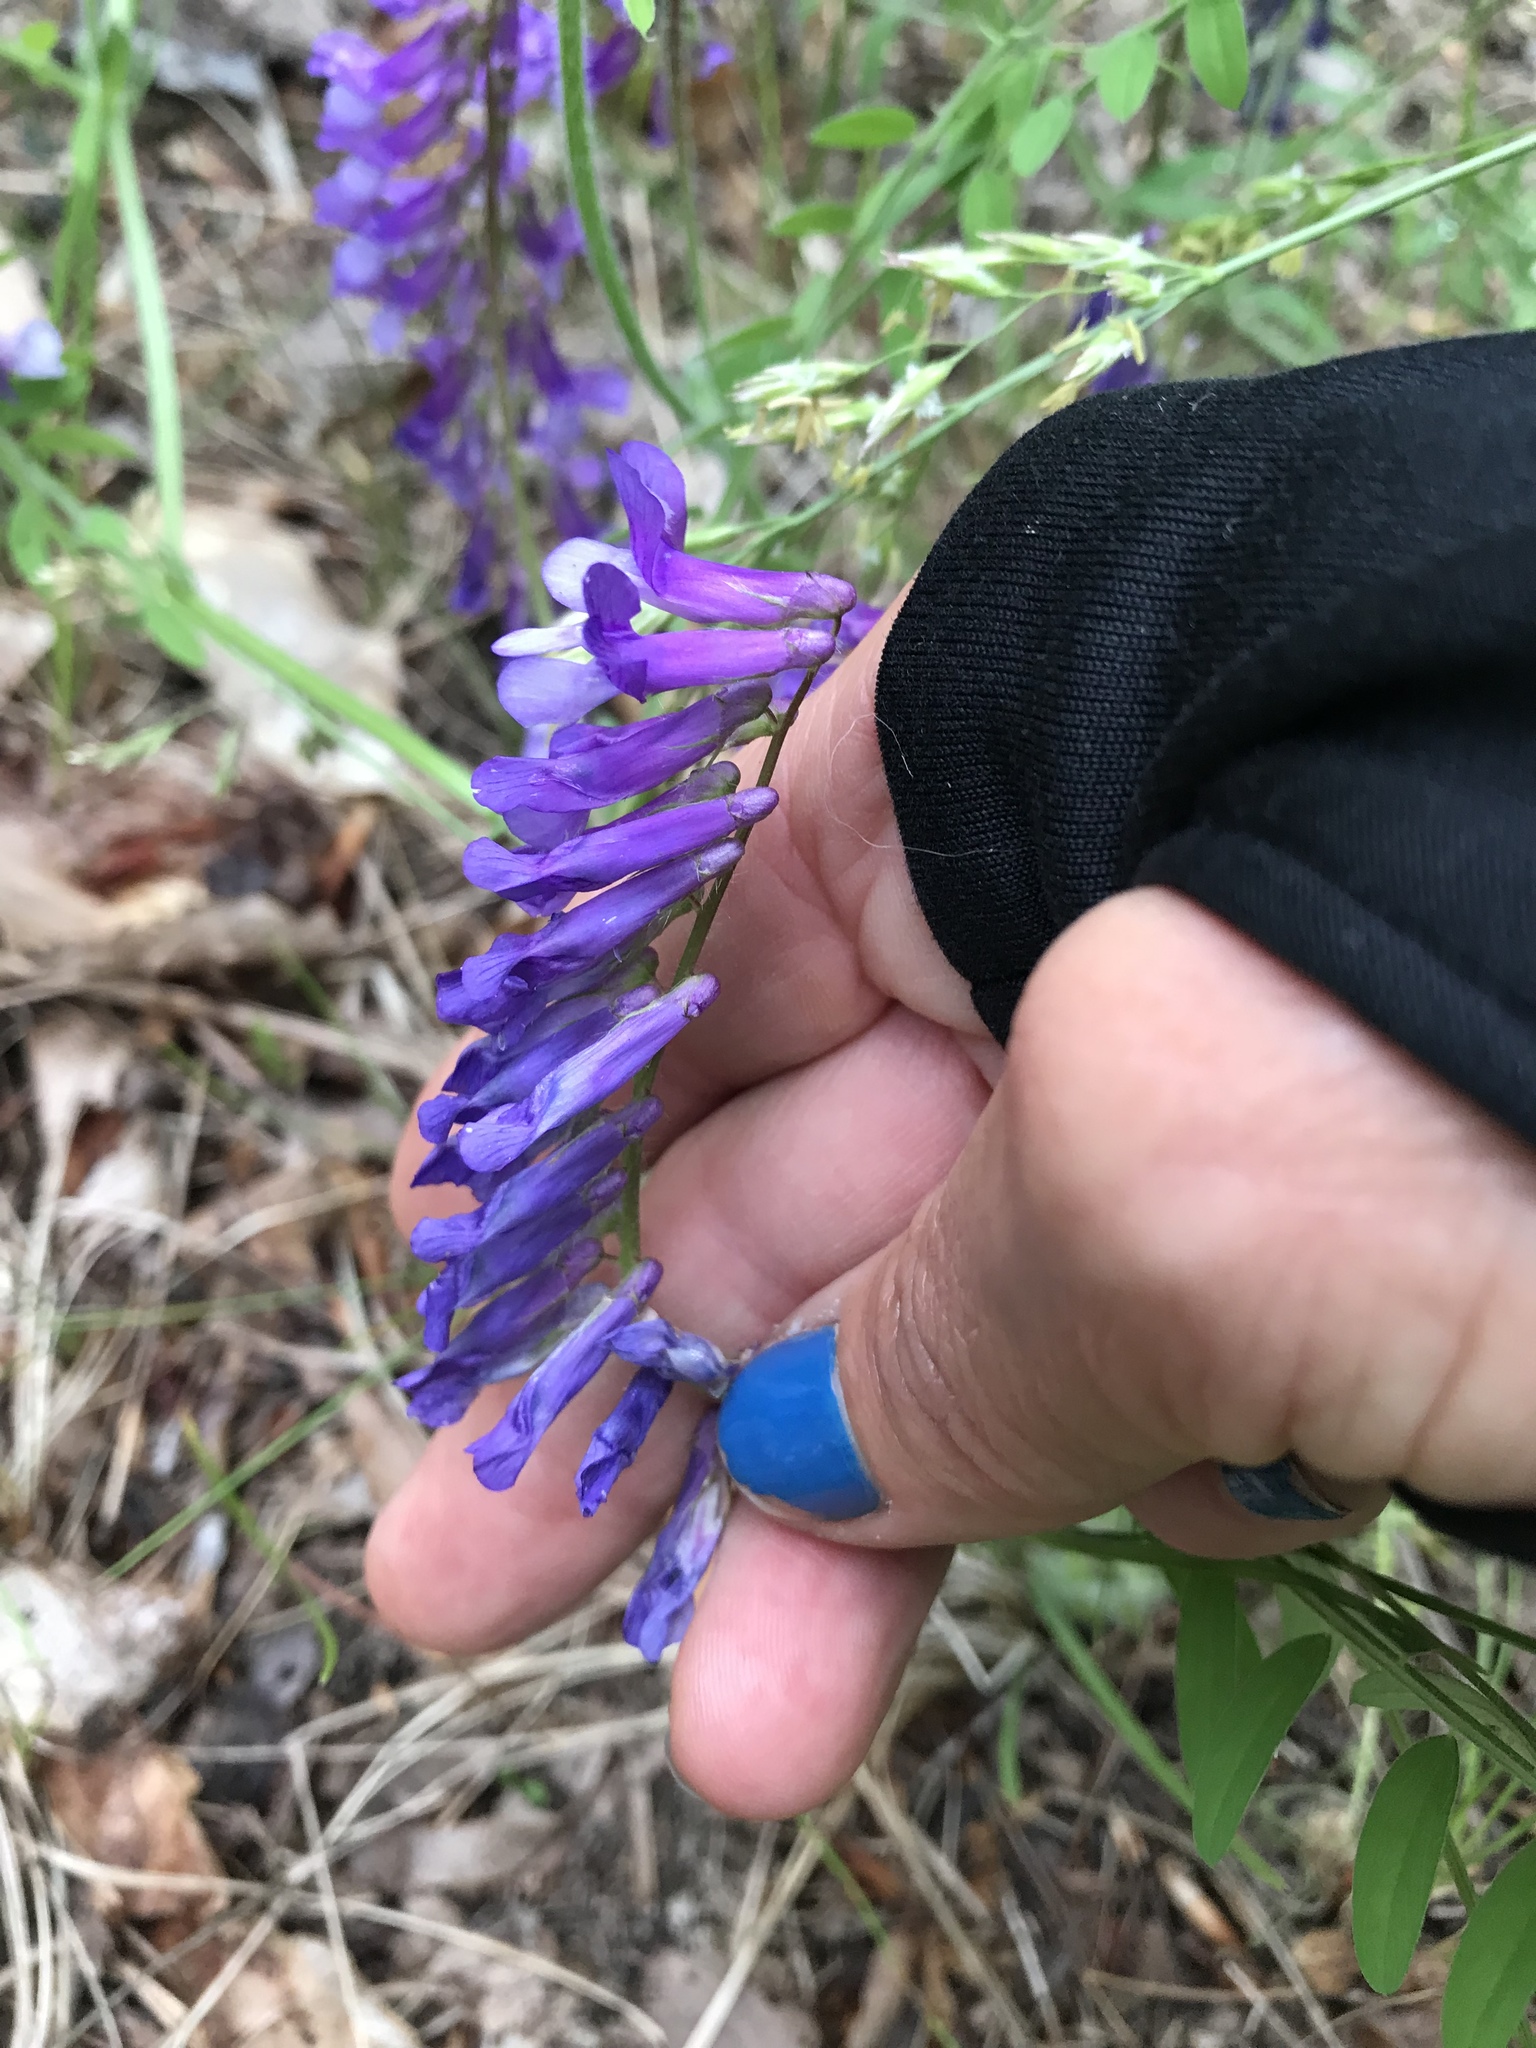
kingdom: Plantae
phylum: Tracheophyta
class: Magnoliopsida
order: Fabales
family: Fabaceae
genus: Vicia
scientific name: Vicia villosa
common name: Fodder vetch
